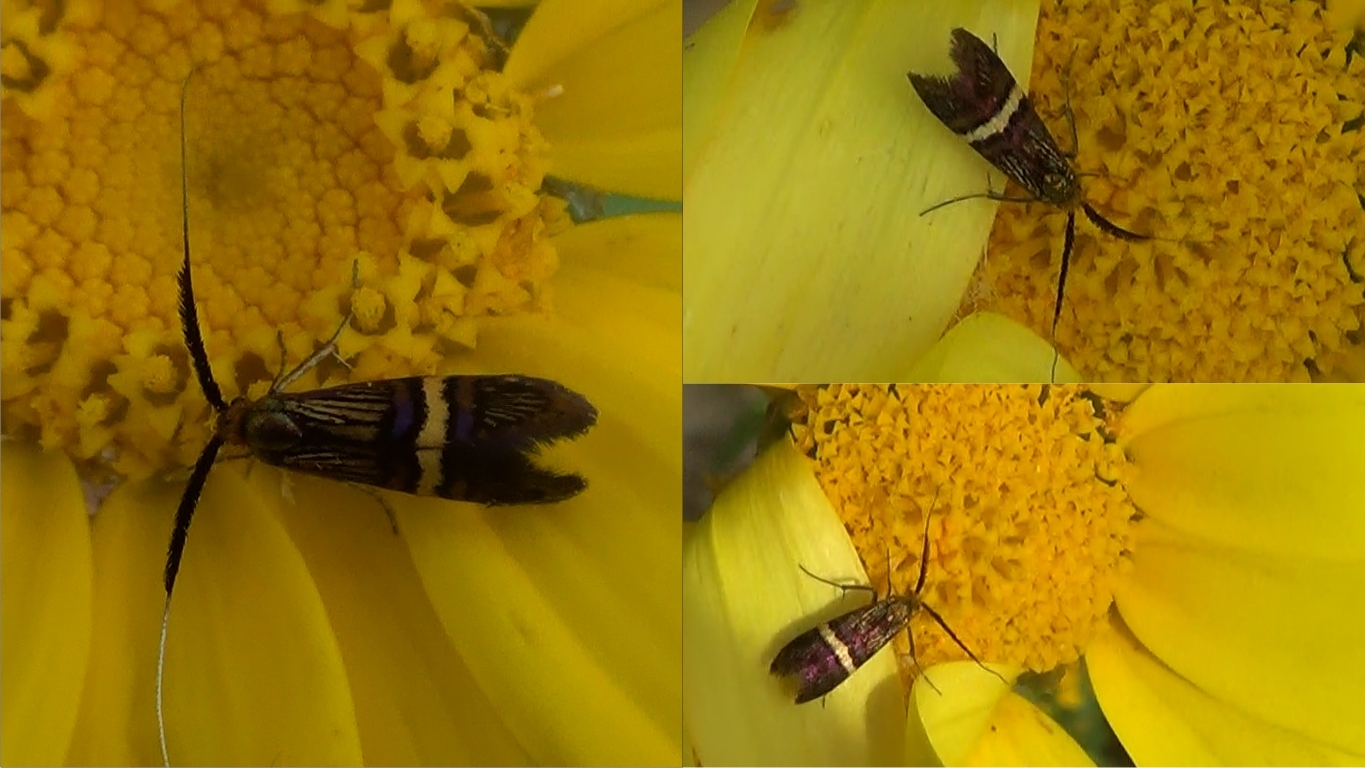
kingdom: Animalia
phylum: Arthropoda
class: Insecta
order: Lepidoptera
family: Adelidae
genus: Adela
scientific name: Adela croesella
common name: Small barred long-horn
